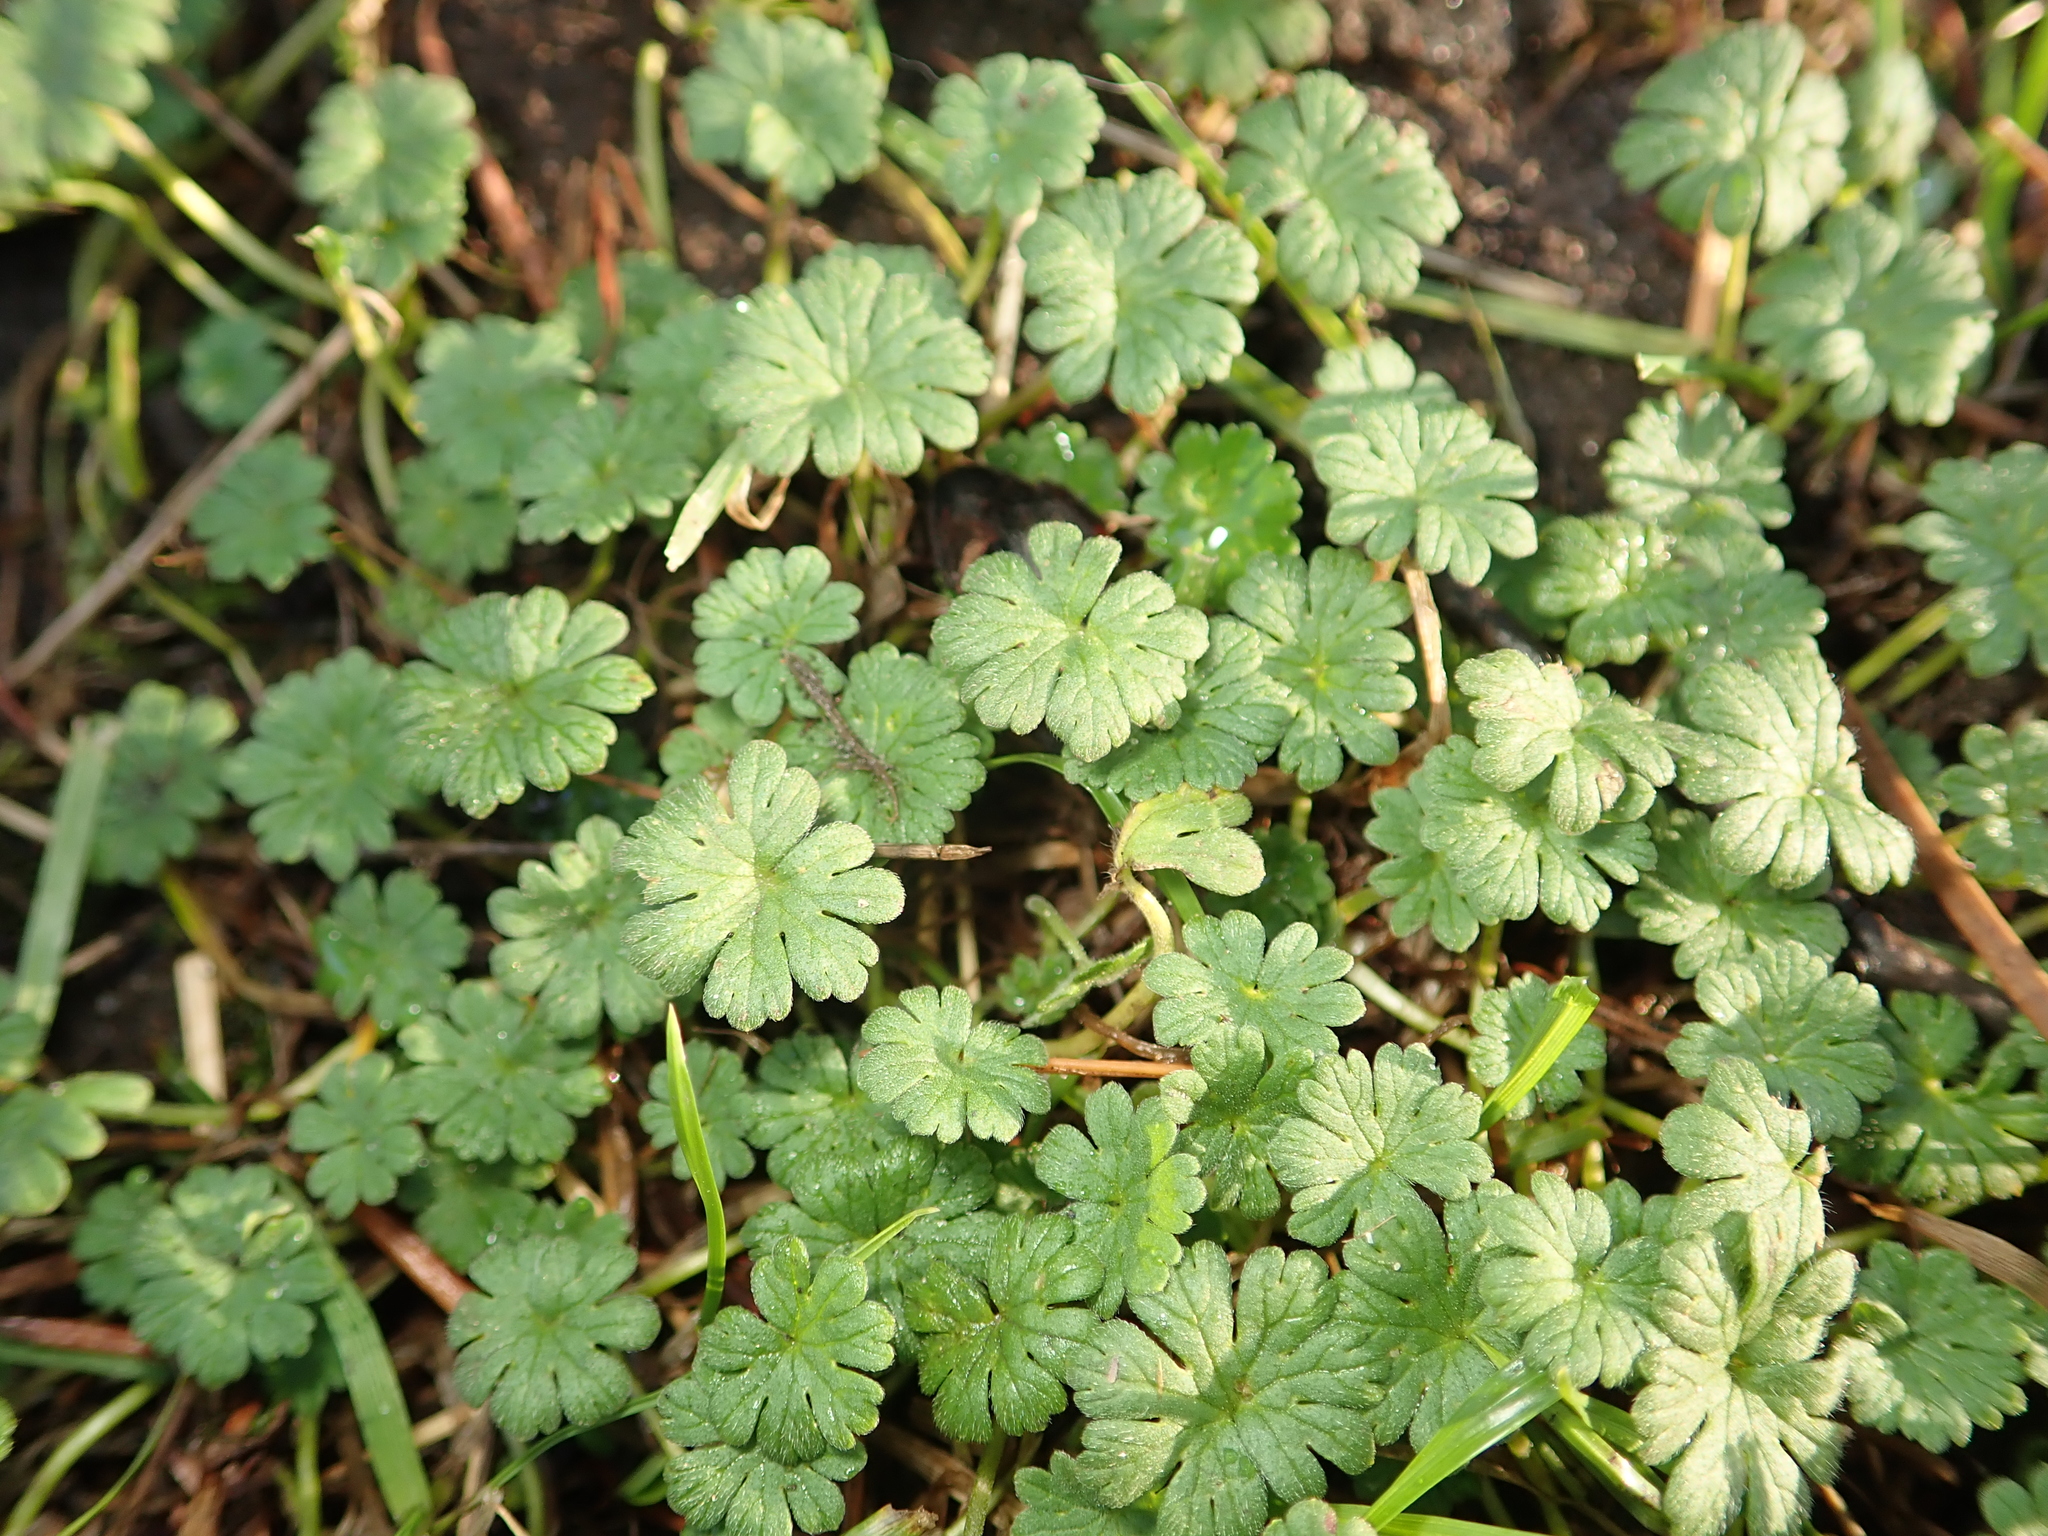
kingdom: Plantae
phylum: Tracheophyta
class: Magnoliopsida
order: Geraniales
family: Geraniaceae
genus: Geranium
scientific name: Geranium molle
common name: Dove's-foot crane's-bill
